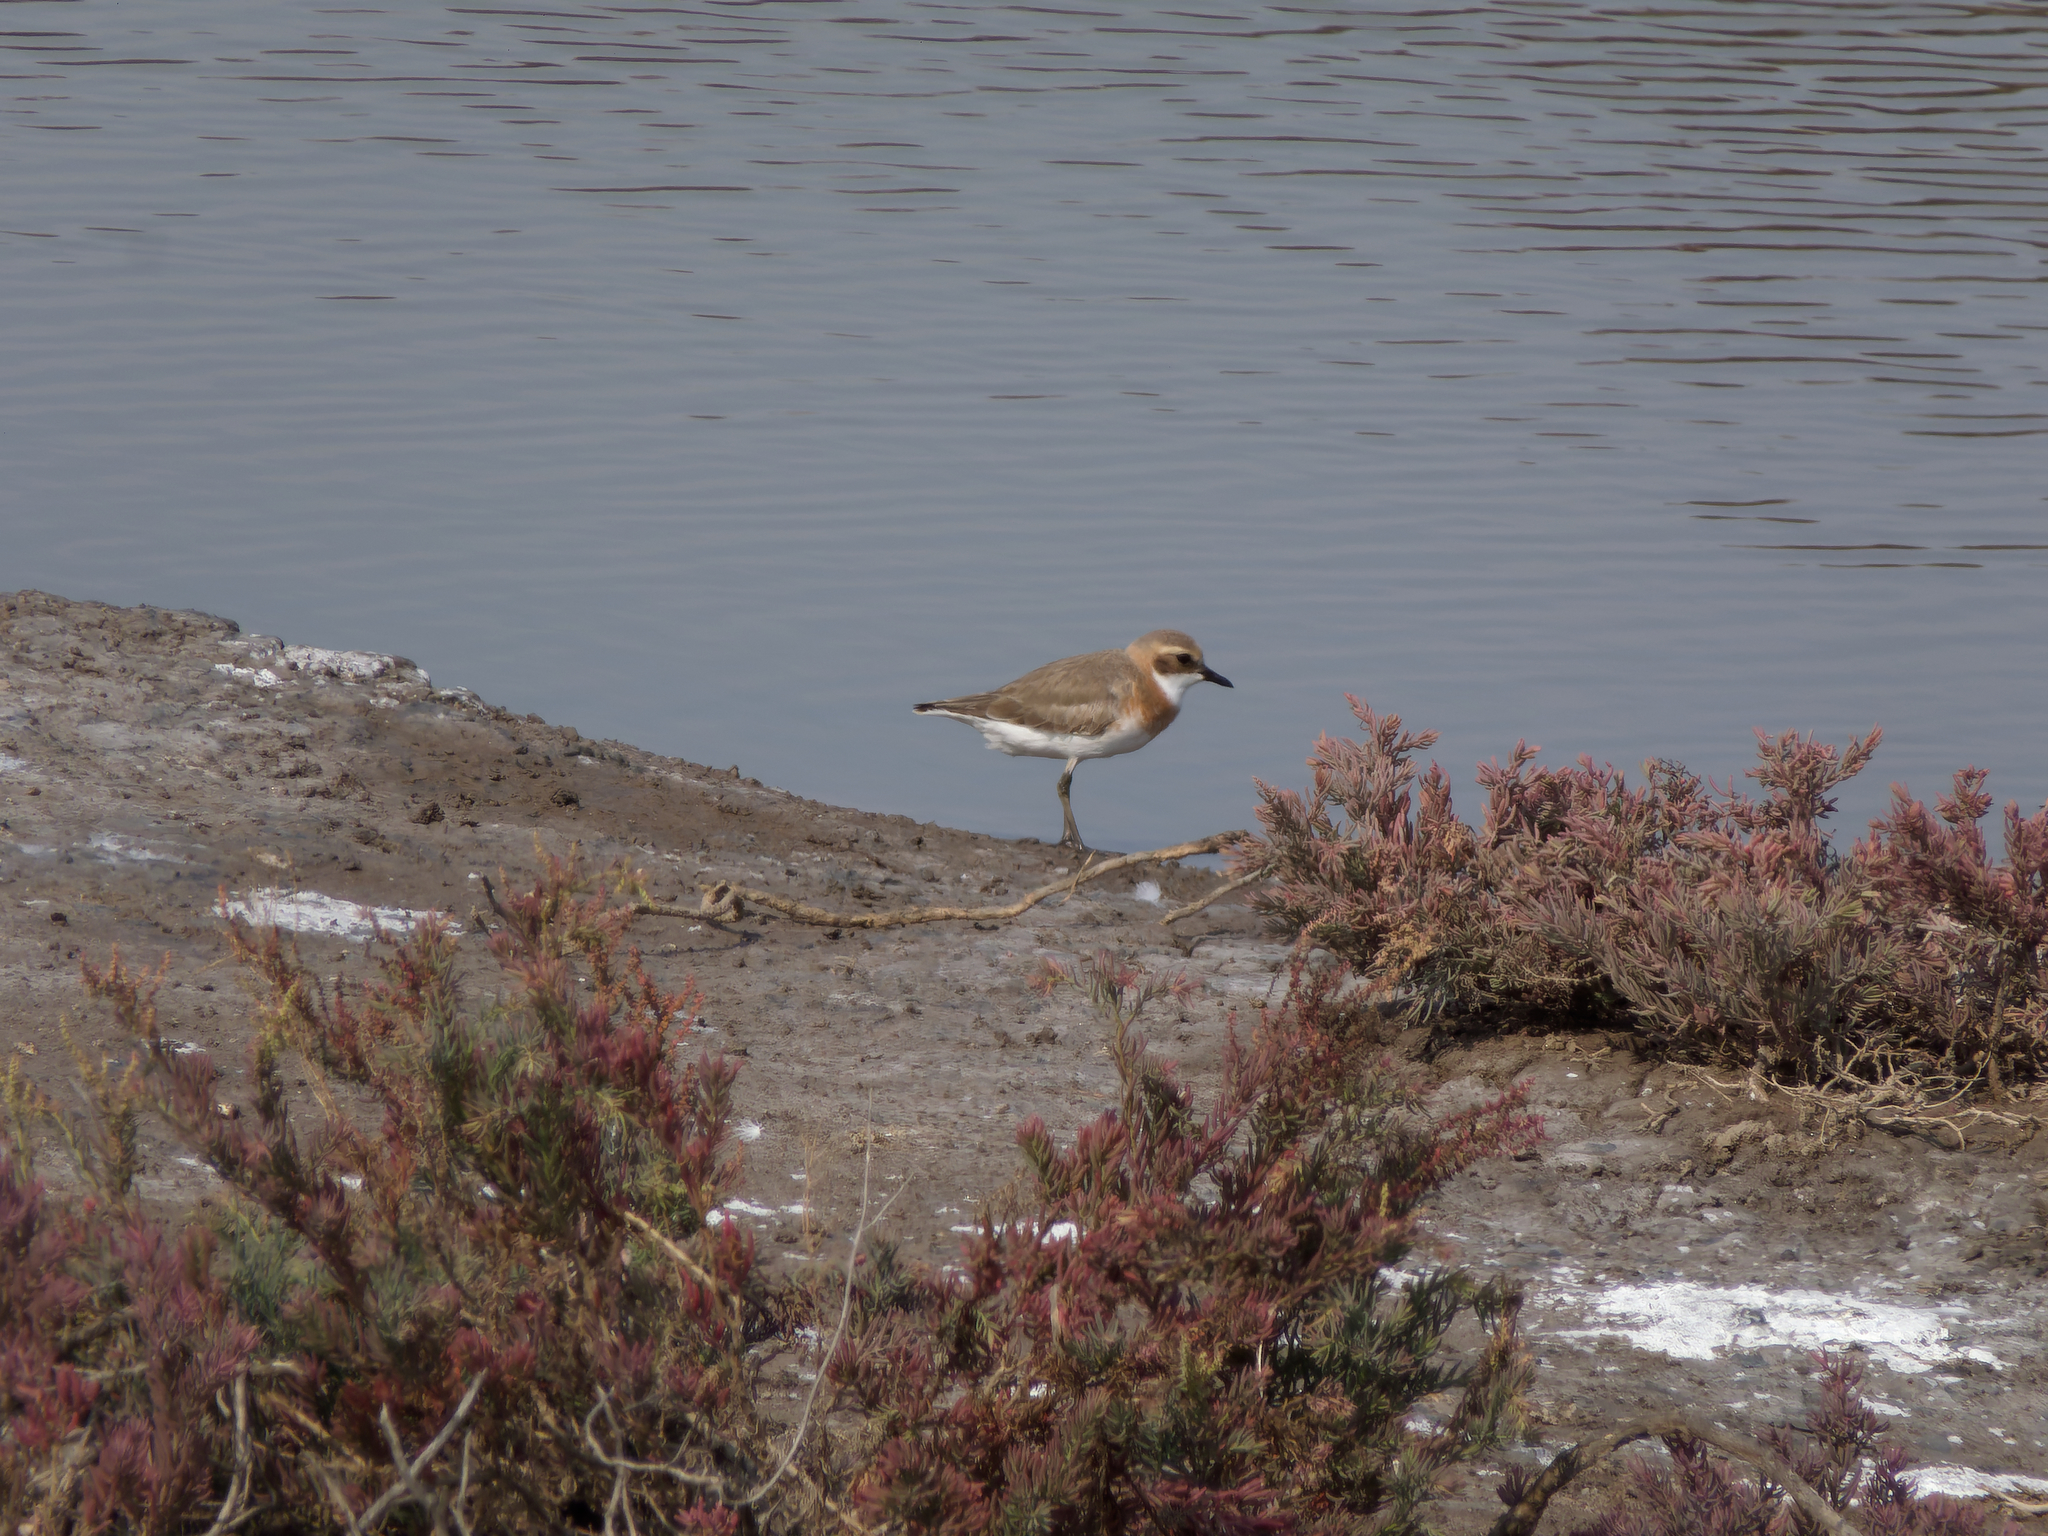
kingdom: Animalia
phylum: Chordata
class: Aves
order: Charadriiformes
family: Charadriidae
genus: Anarhynchus
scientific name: Anarhynchus
